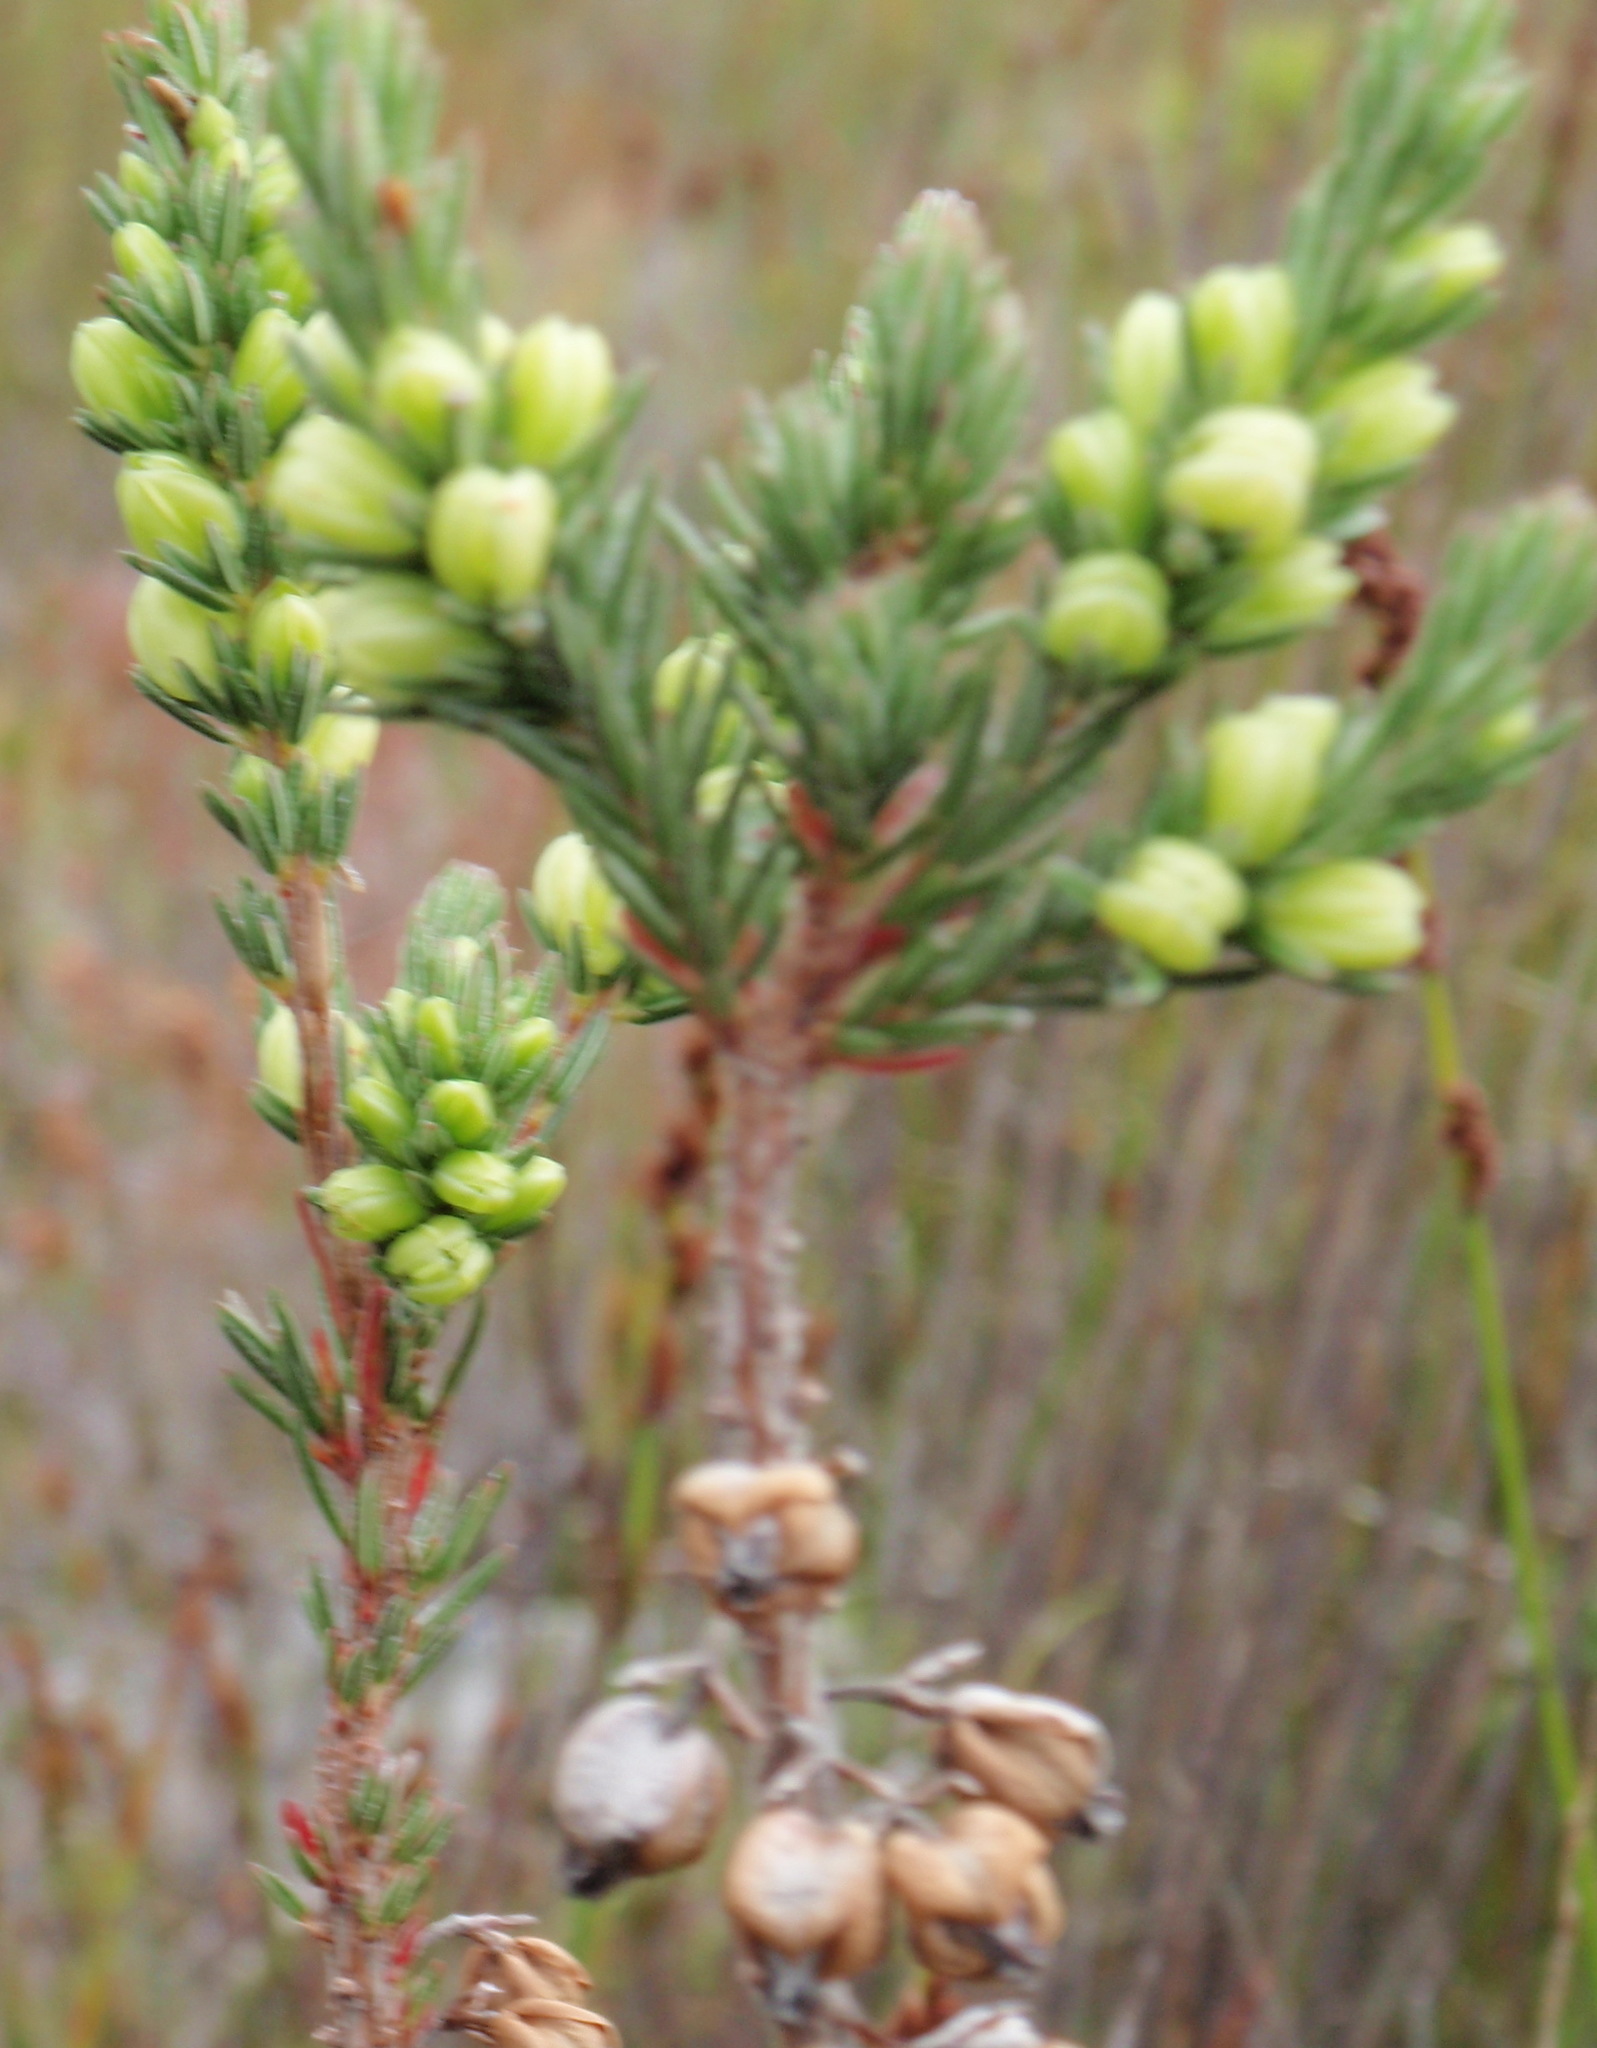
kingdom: Plantae
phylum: Tracheophyta
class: Magnoliopsida
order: Ericales
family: Ericaceae
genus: Erica
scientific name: Erica grisbrookii
